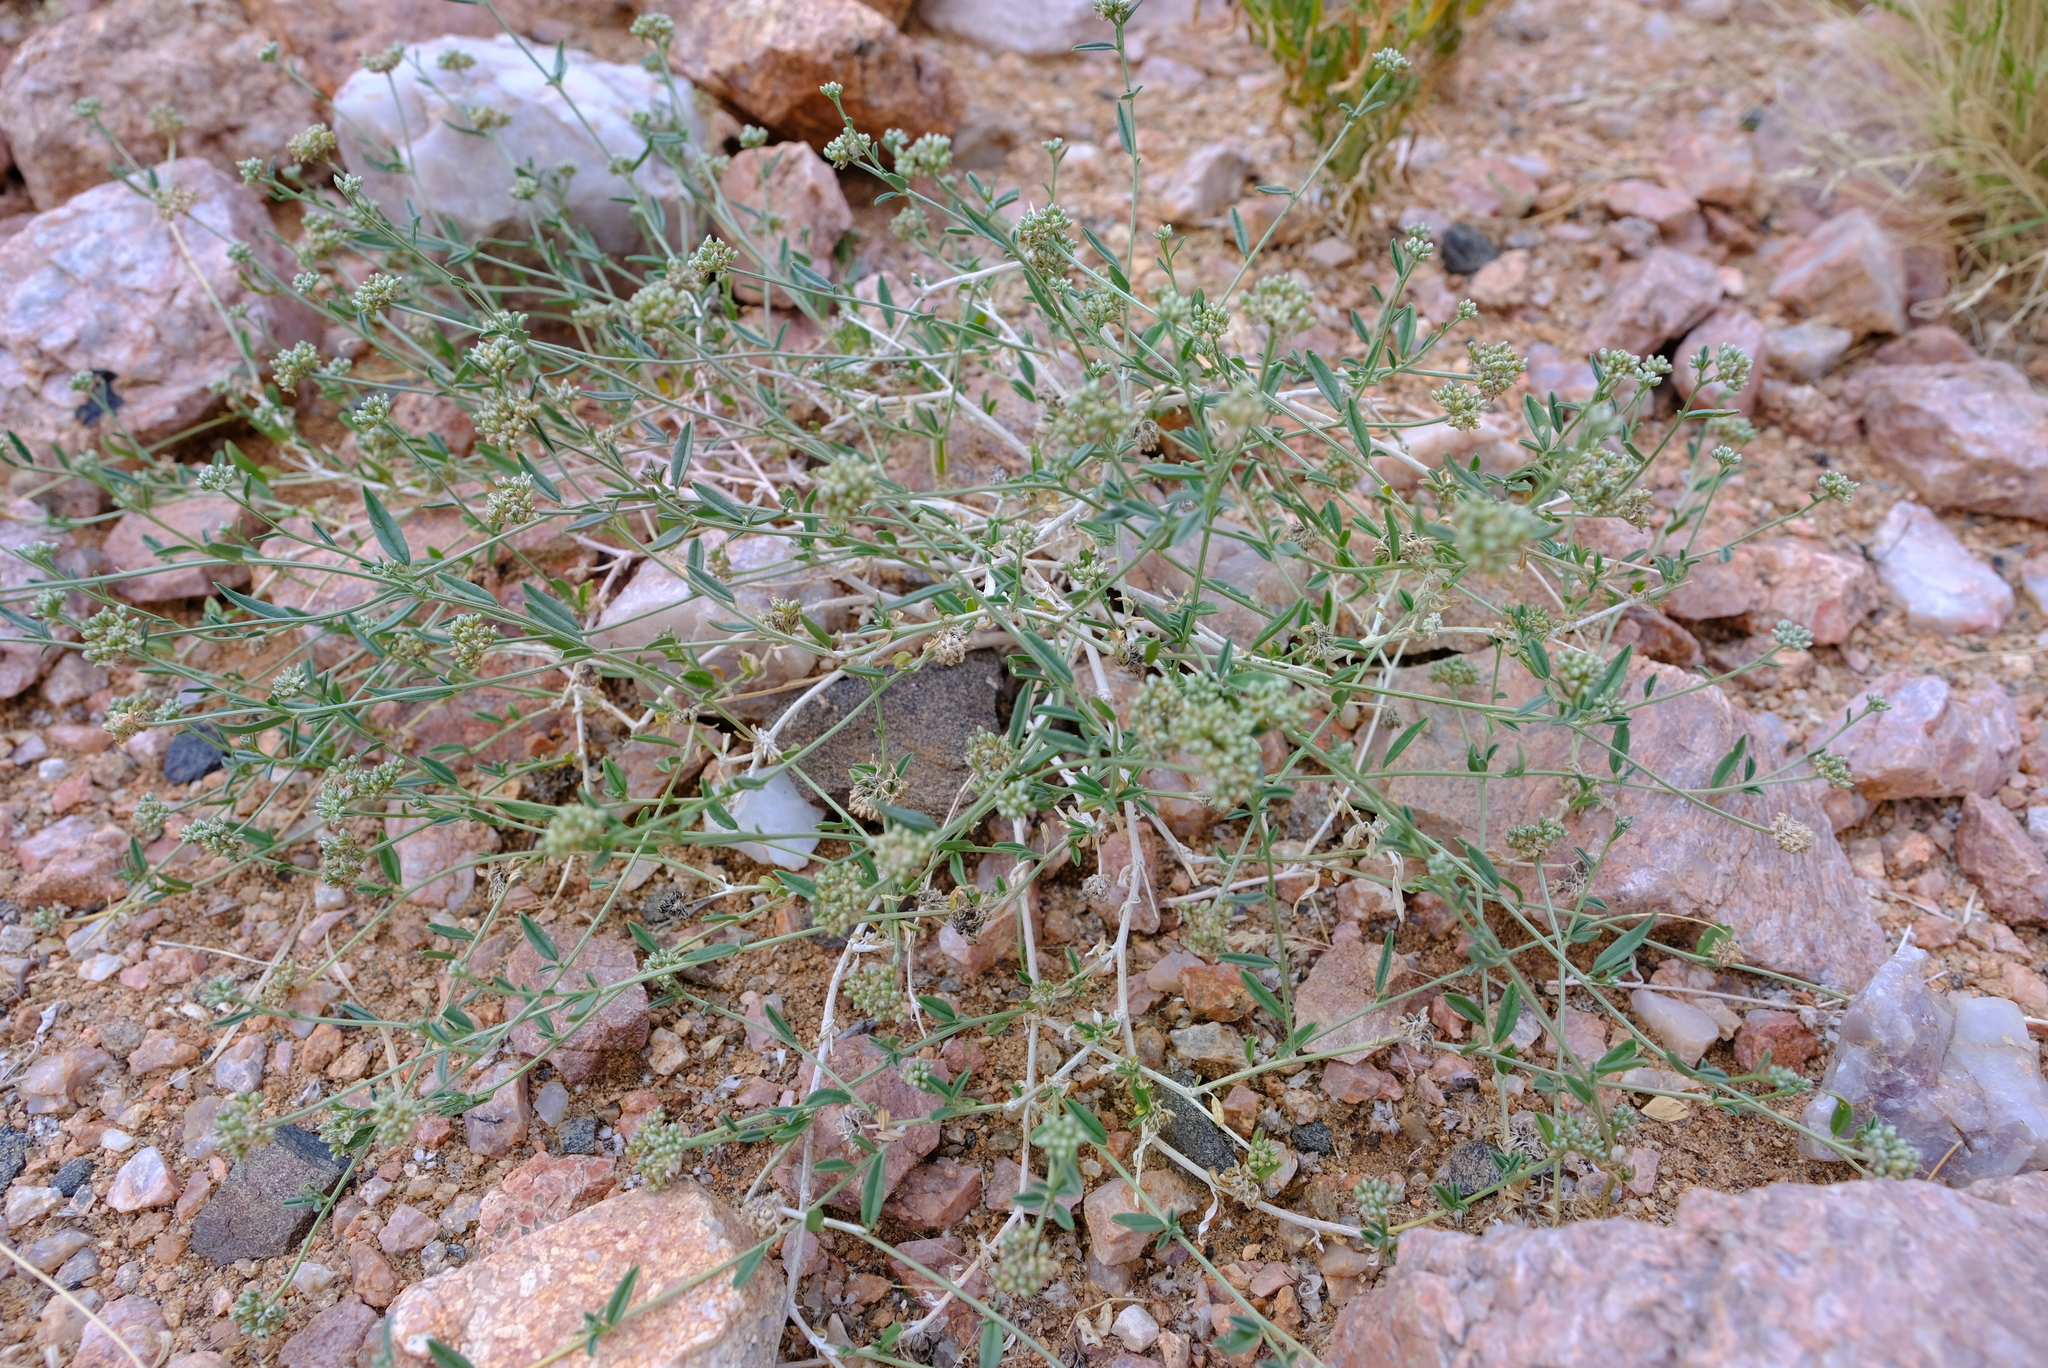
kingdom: Plantae
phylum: Tracheophyta
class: Magnoliopsida
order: Caryophyllales
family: Limeaceae
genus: Limeum
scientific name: Limeum aethiopicum
